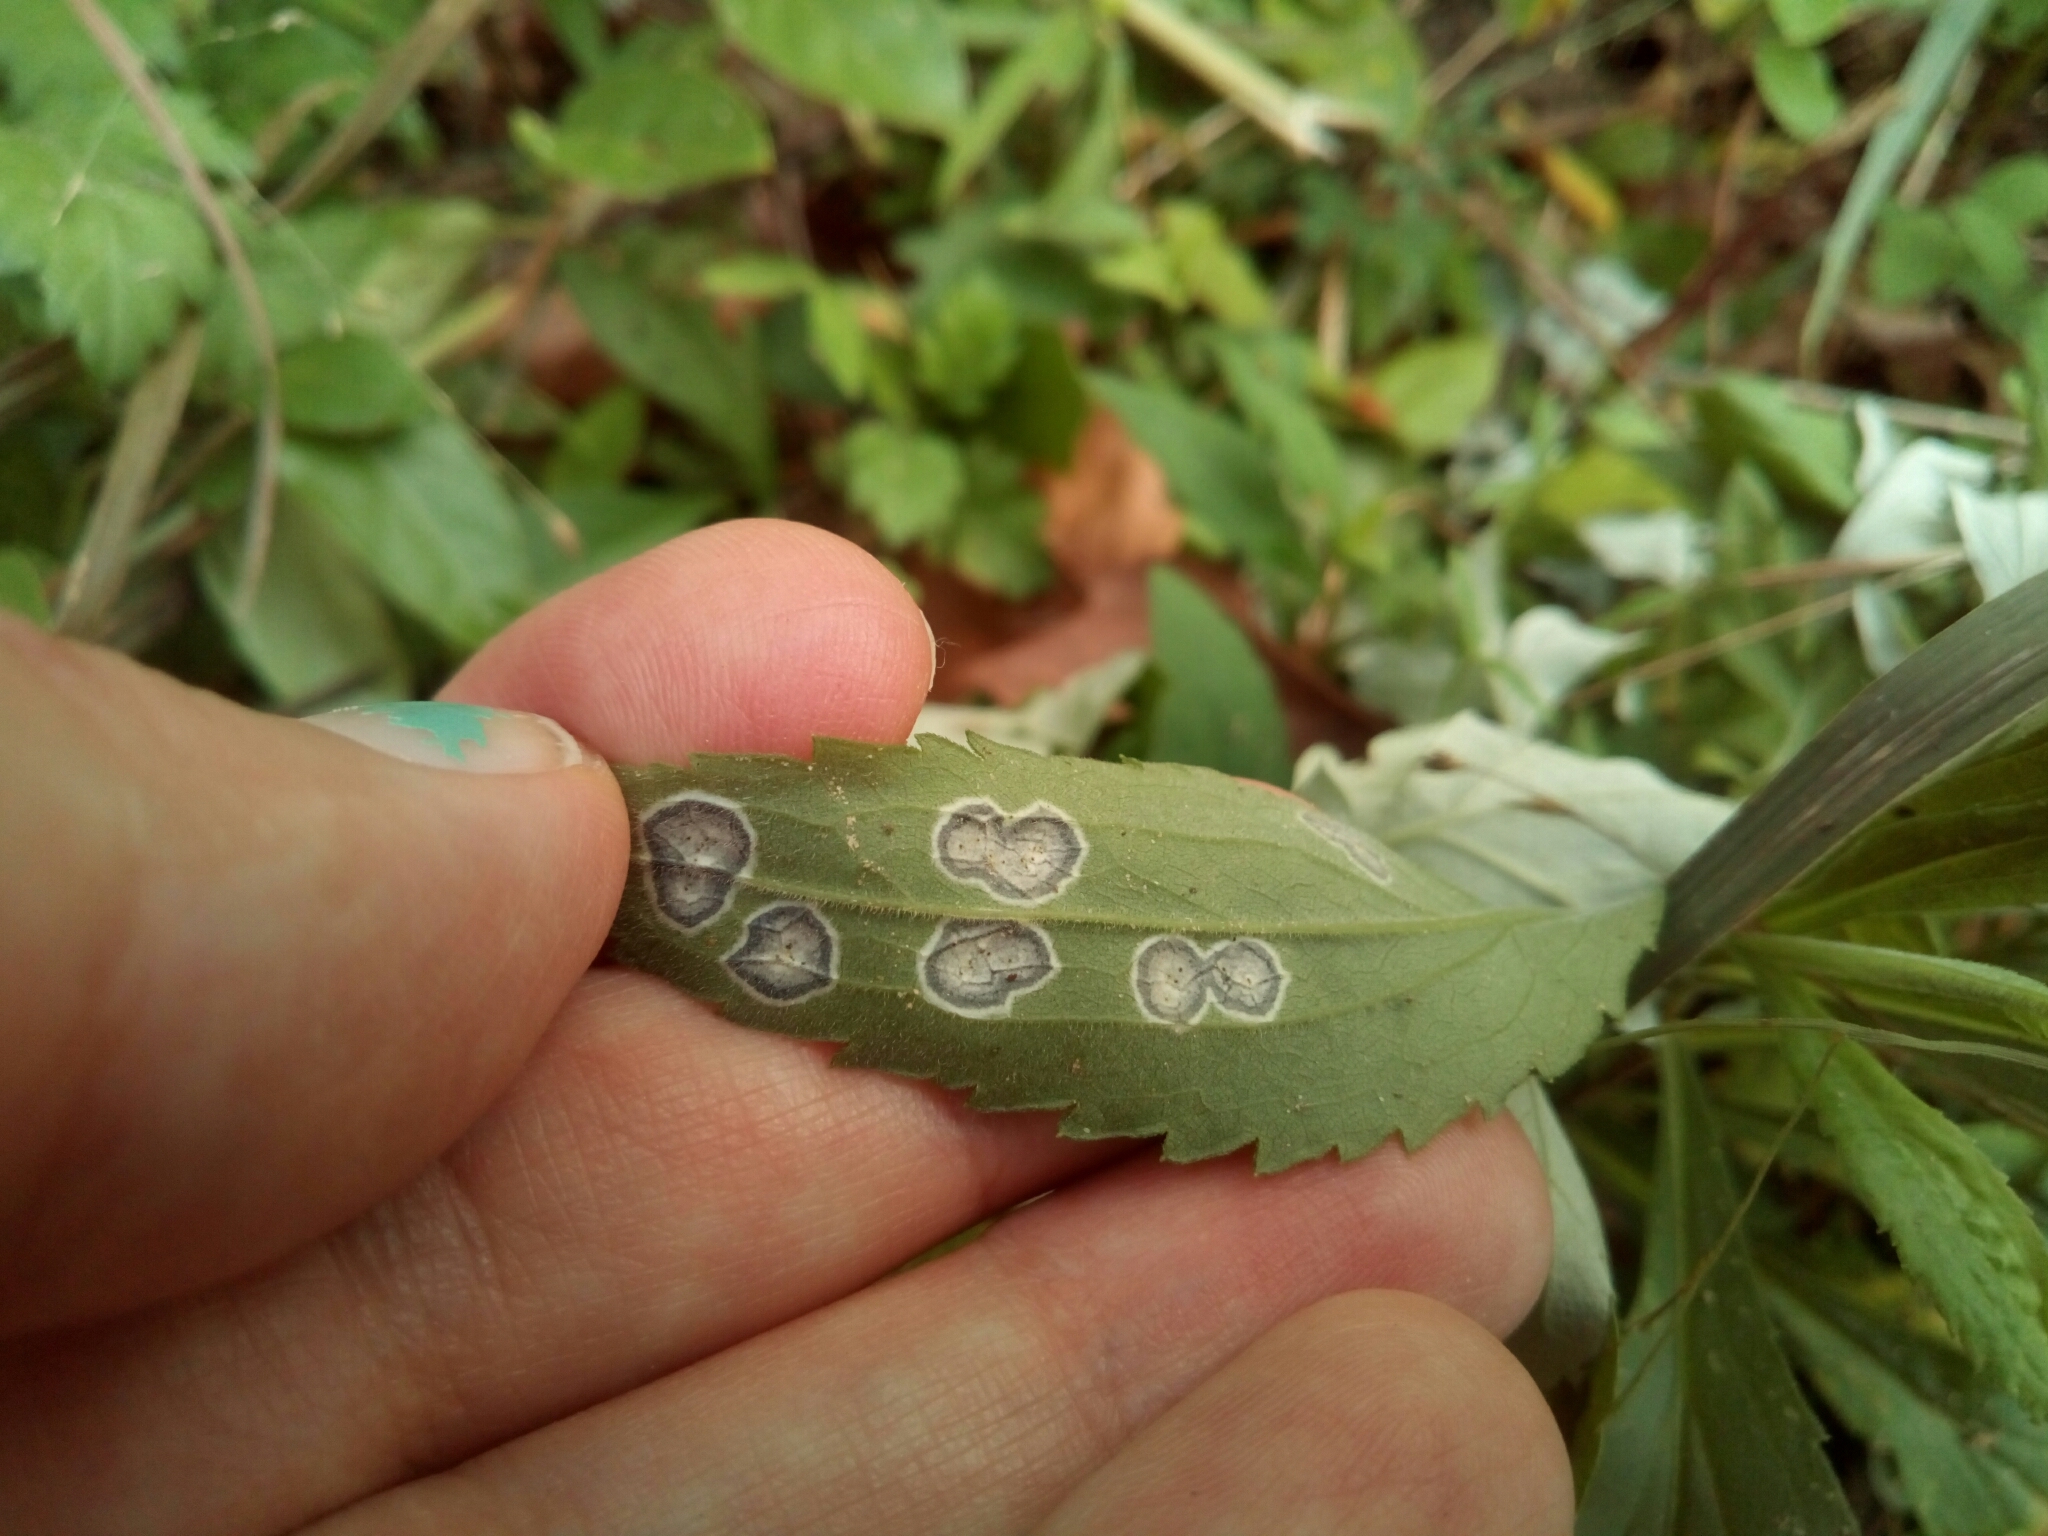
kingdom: Animalia
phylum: Arthropoda
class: Insecta
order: Diptera
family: Cecidomyiidae
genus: Asteromyia
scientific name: Asteromyia carbonifera
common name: Carbonifera goldenrod gall midge
